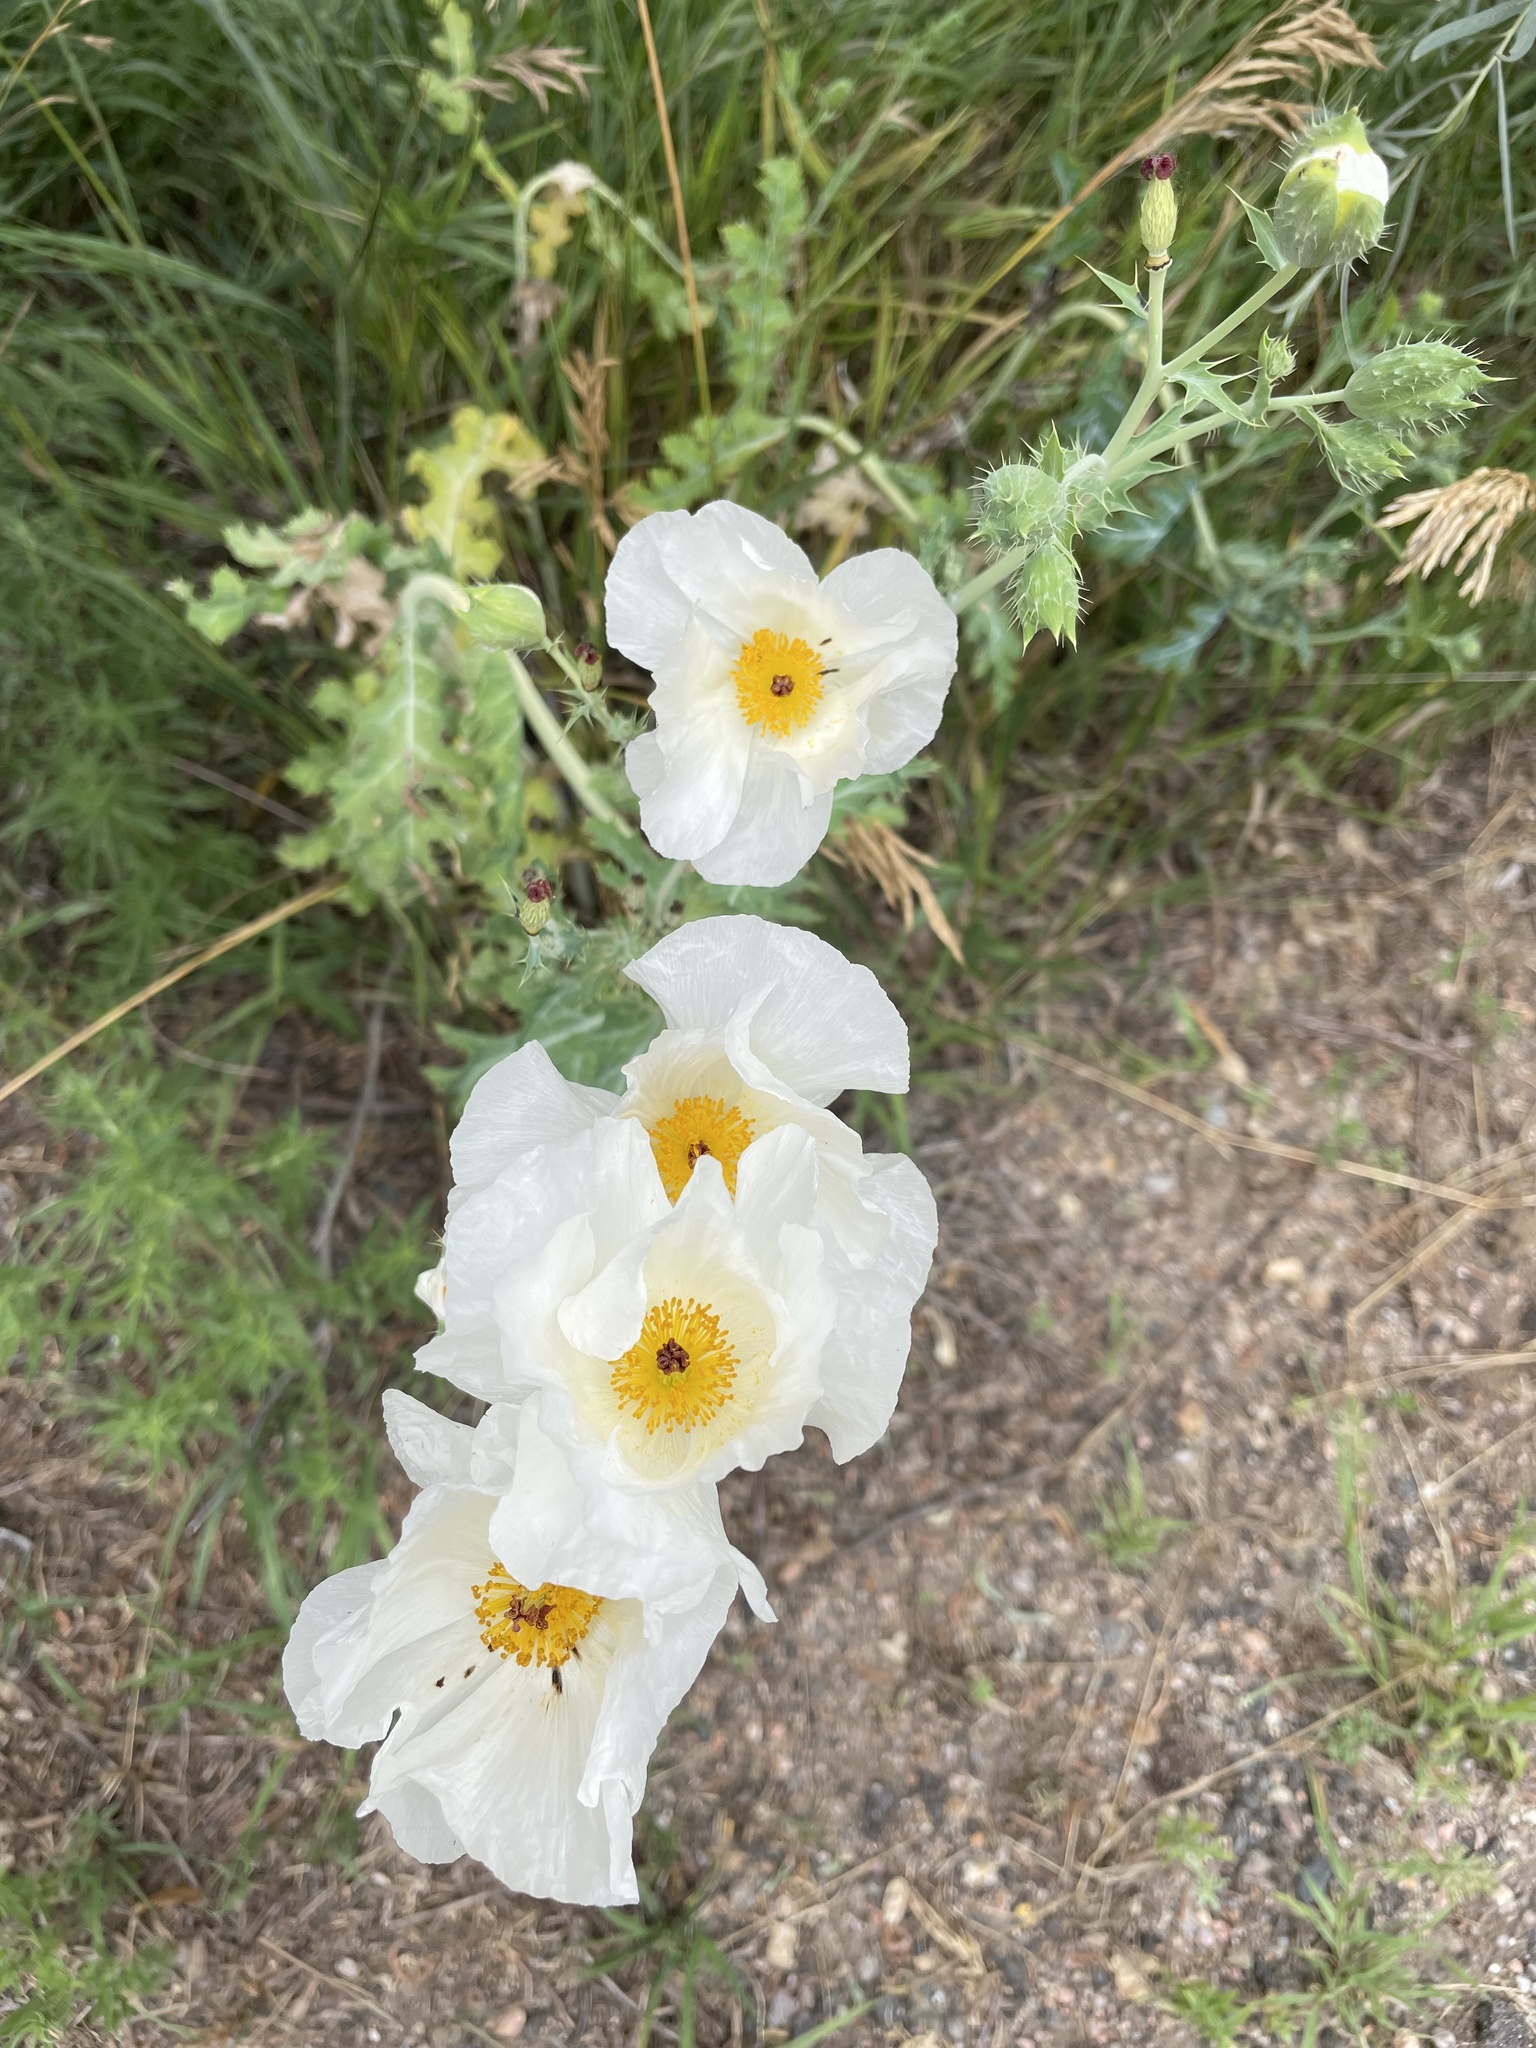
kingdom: Plantae
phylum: Tracheophyta
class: Magnoliopsida
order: Ranunculales
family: Papaveraceae
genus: Argemone
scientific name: Argemone polyanthemos
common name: Plains prickly-poppy
